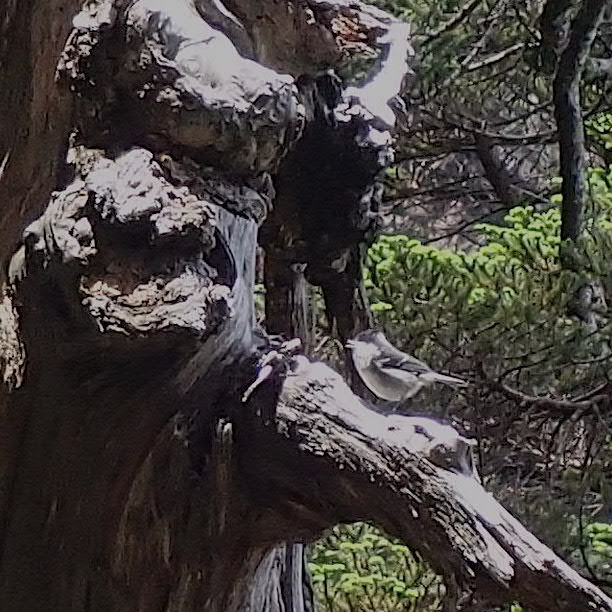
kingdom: Animalia
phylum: Chordata
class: Aves
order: Passeriformes
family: Paridae
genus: Periparus
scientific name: Periparus ater
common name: Coal tit
